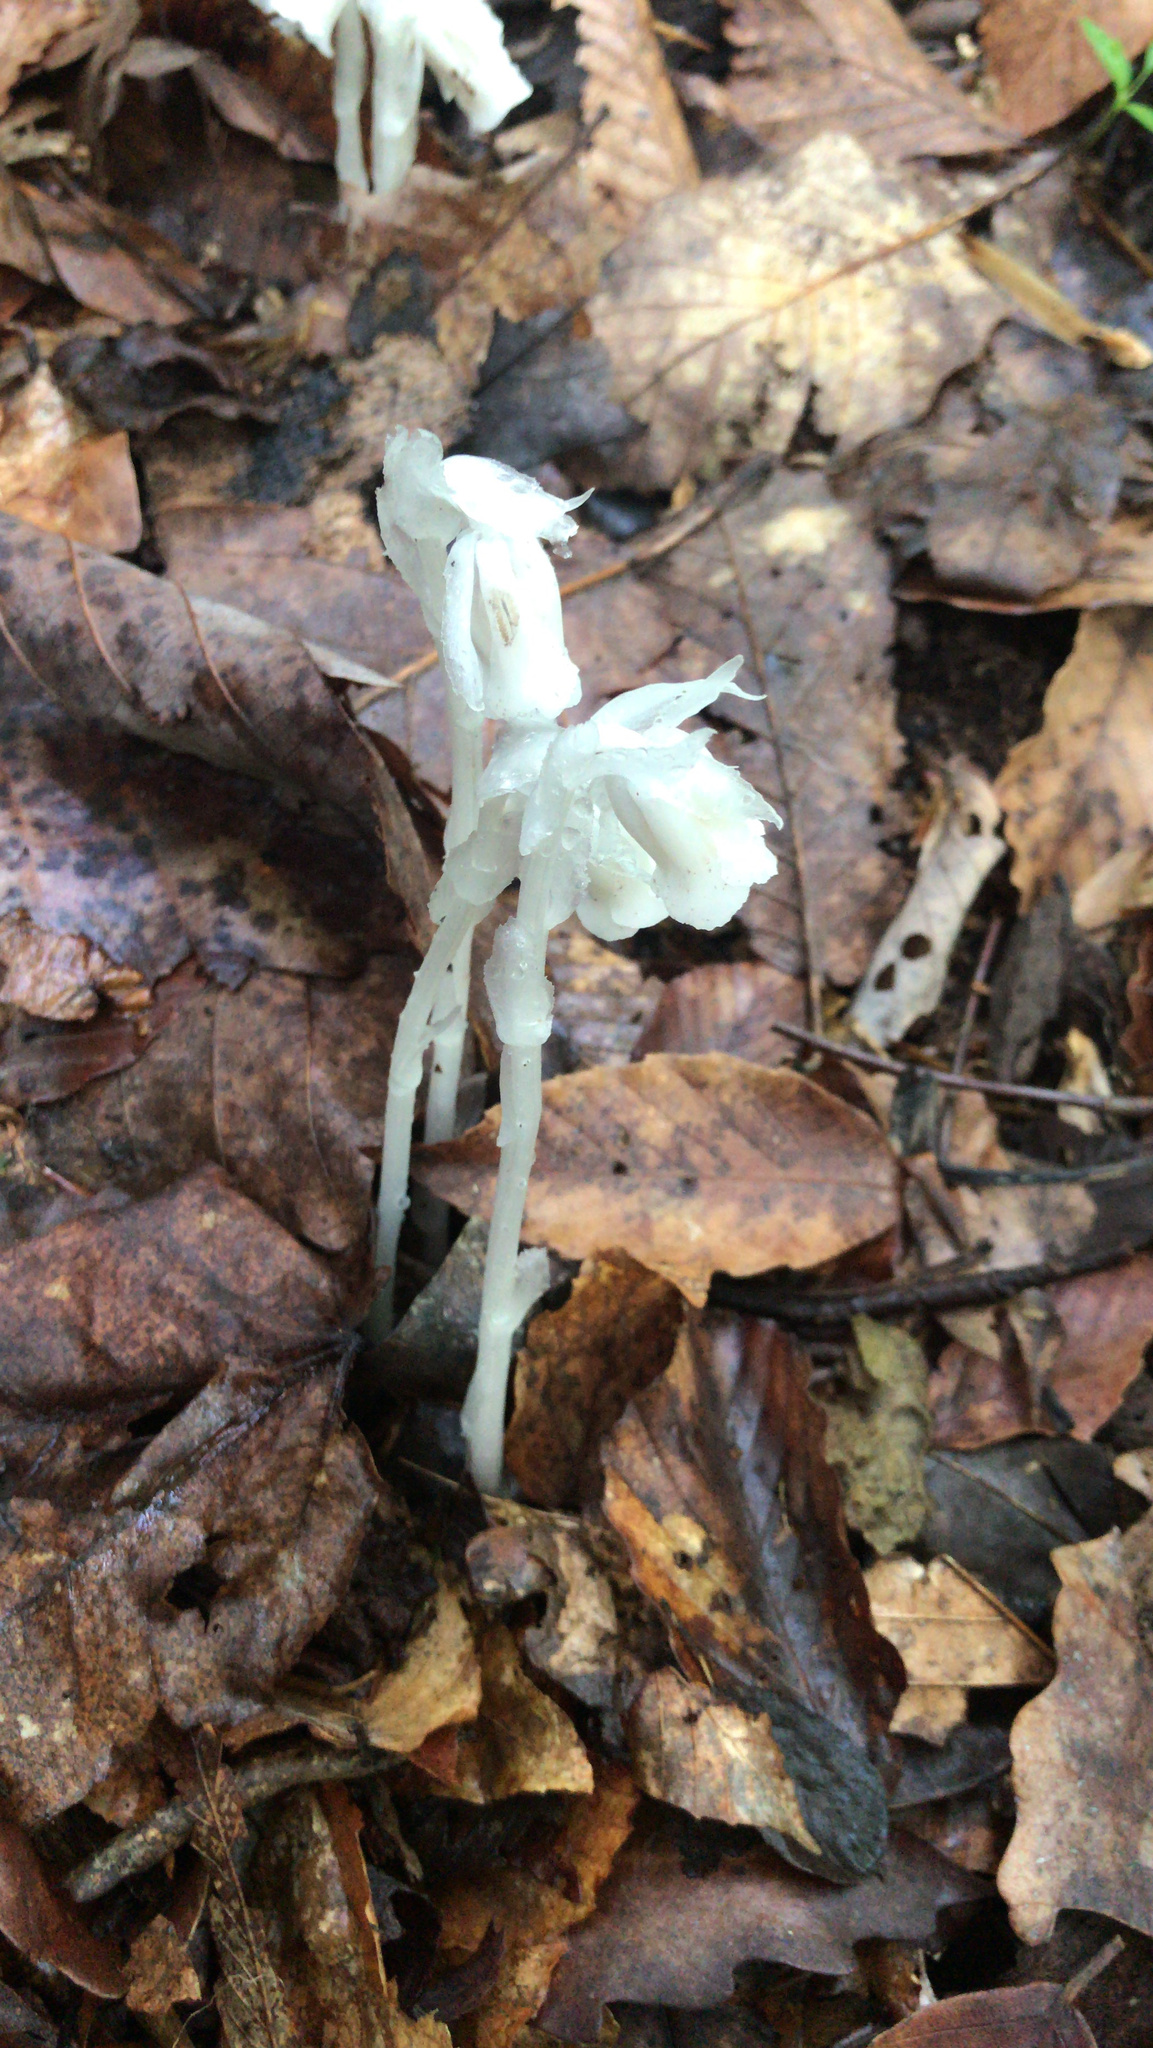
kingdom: Plantae
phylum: Tracheophyta
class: Magnoliopsida
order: Ericales
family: Ericaceae
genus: Monotropa
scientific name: Monotropa uniflora
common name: Convulsion root
